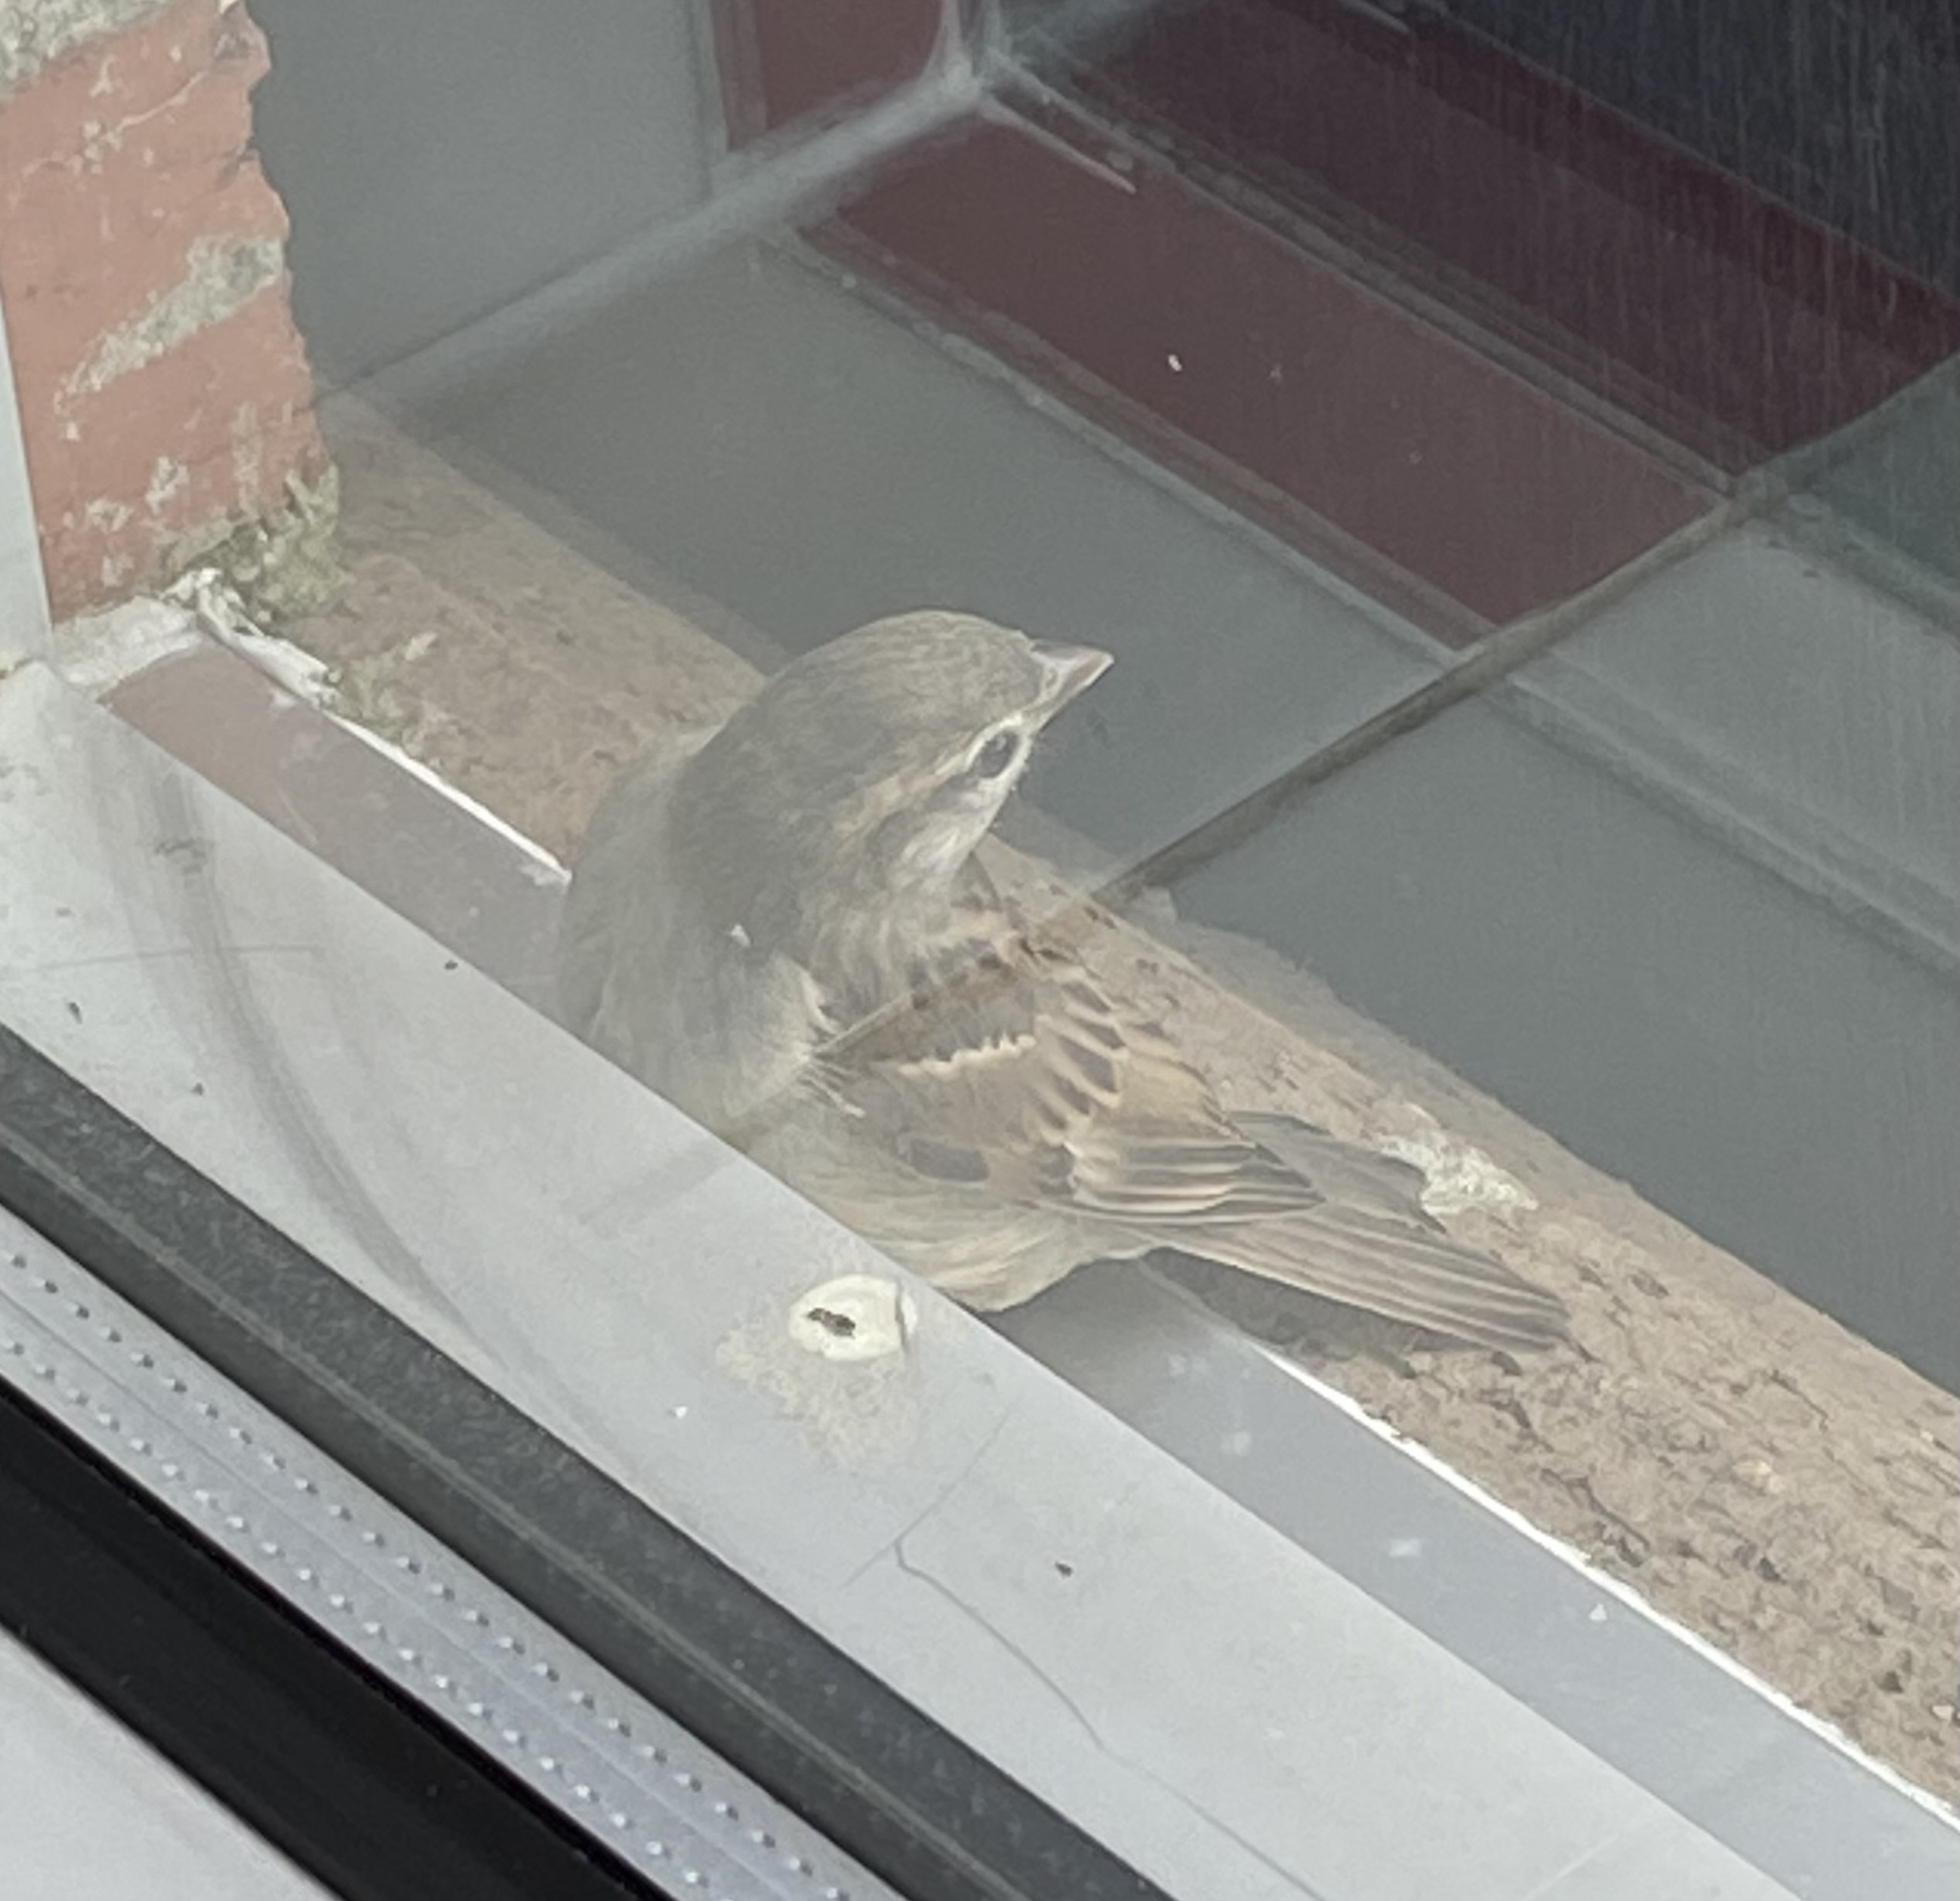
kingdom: Animalia
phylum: Chordata
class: Aves
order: Passeriformes
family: Passeridae
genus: Passer
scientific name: Passer domesticus
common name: House sparrow
